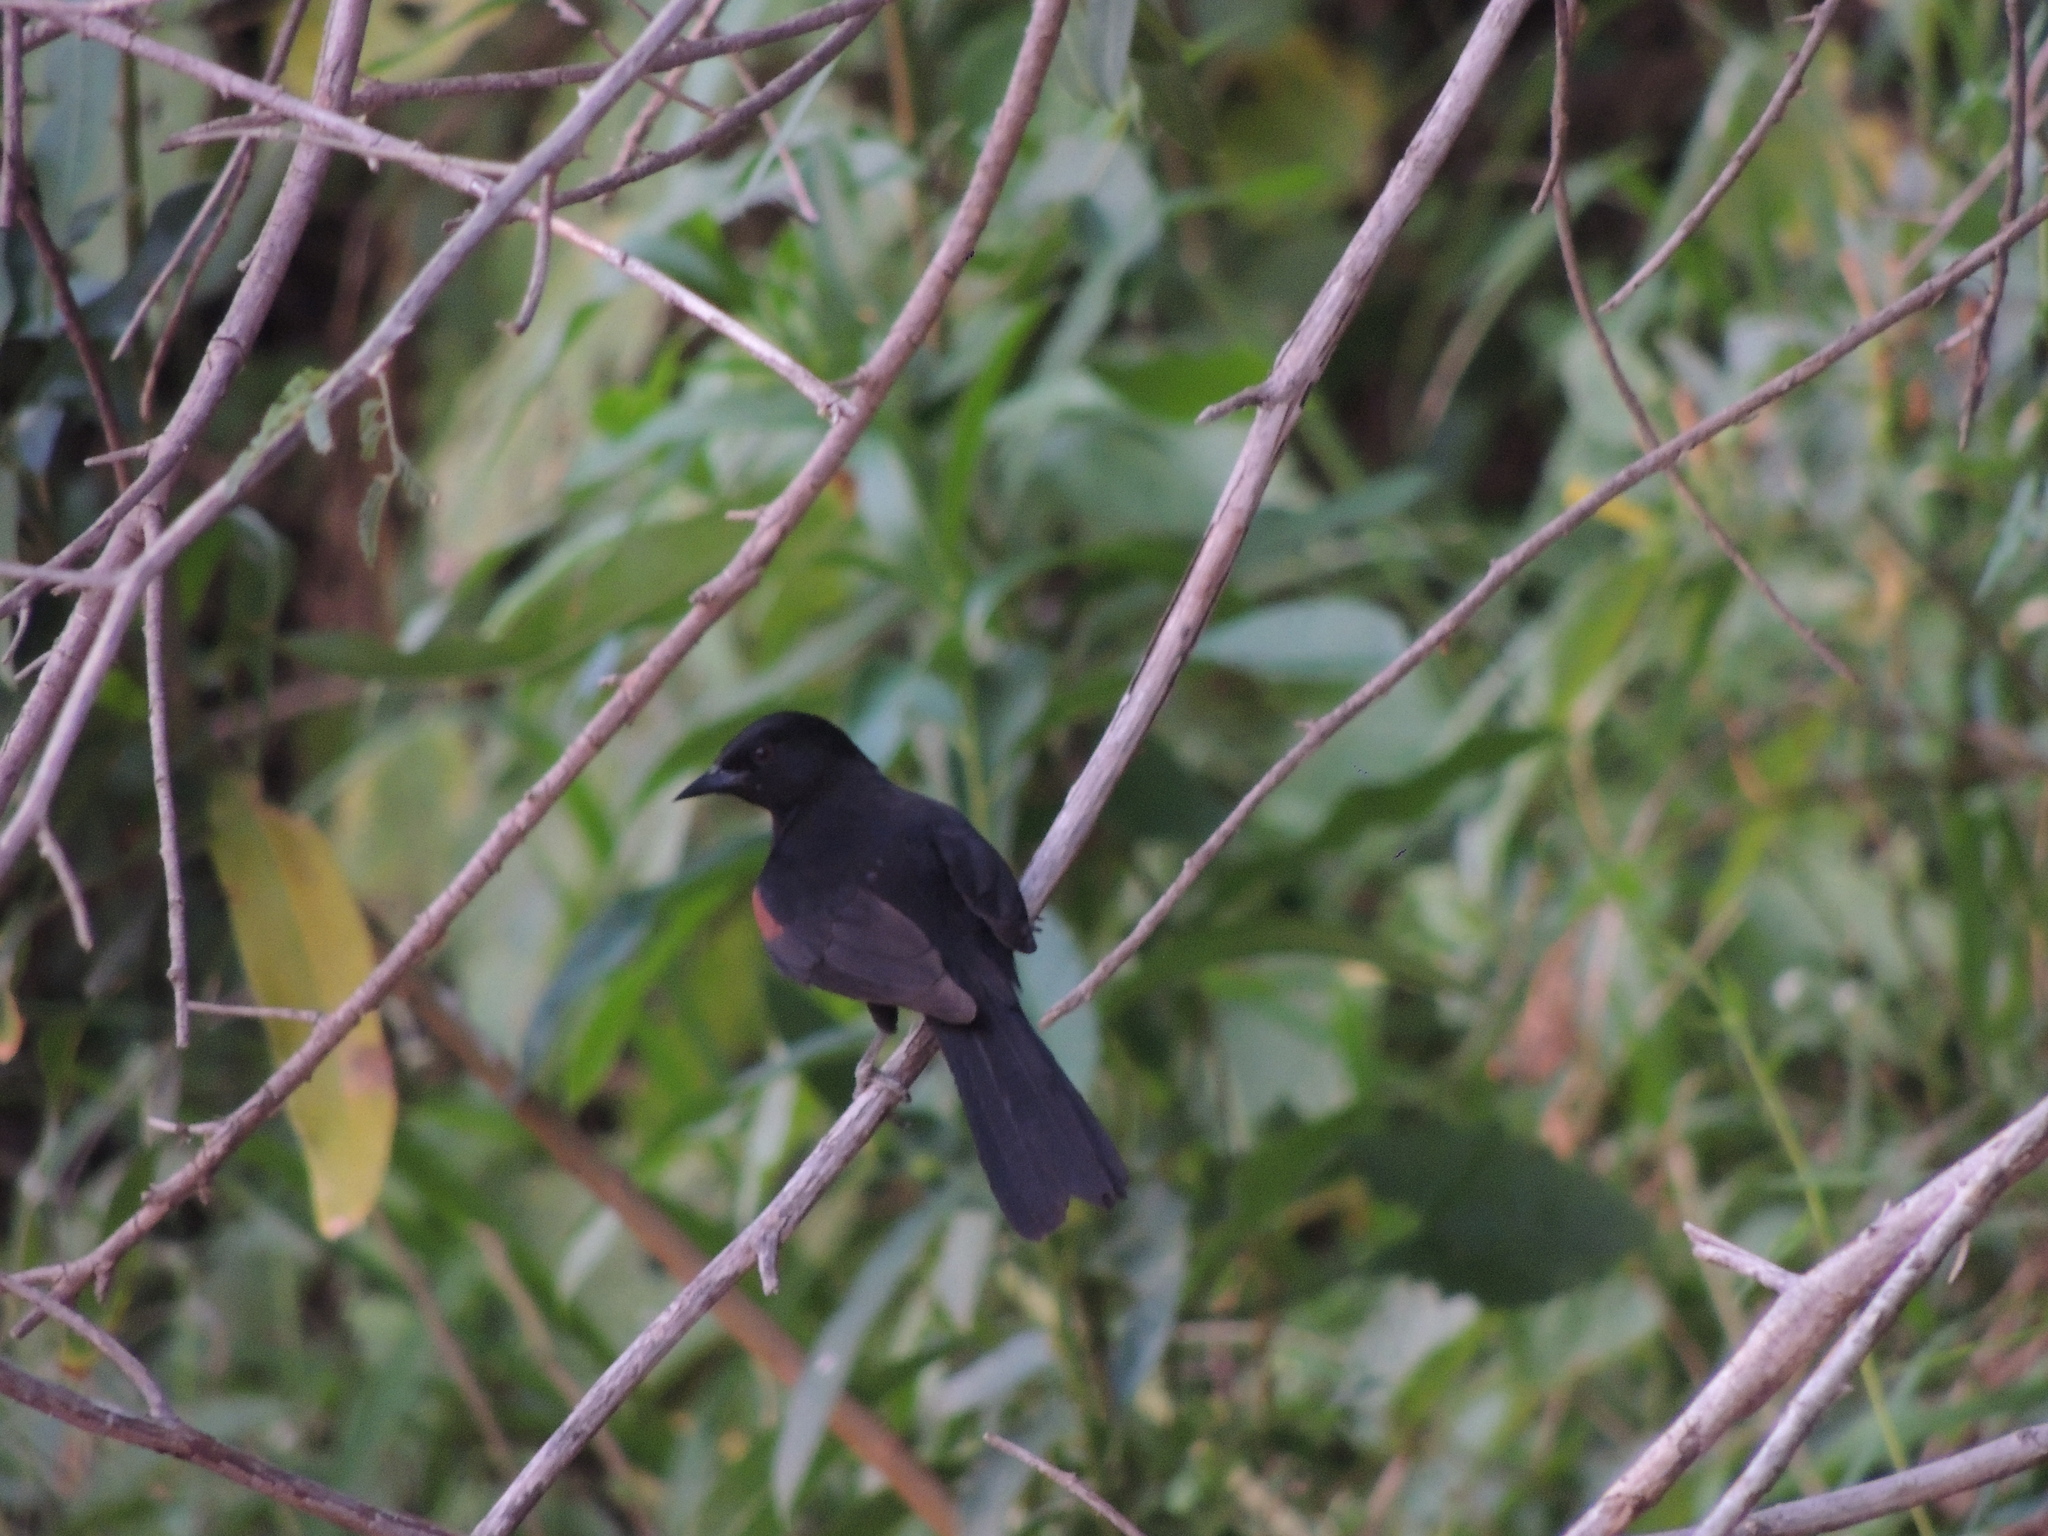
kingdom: Animalia
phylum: Chordata
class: Aves
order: Passeriformes
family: Icteridae
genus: Icterus
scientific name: Icterus cayanensis
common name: Epaulet oriole
